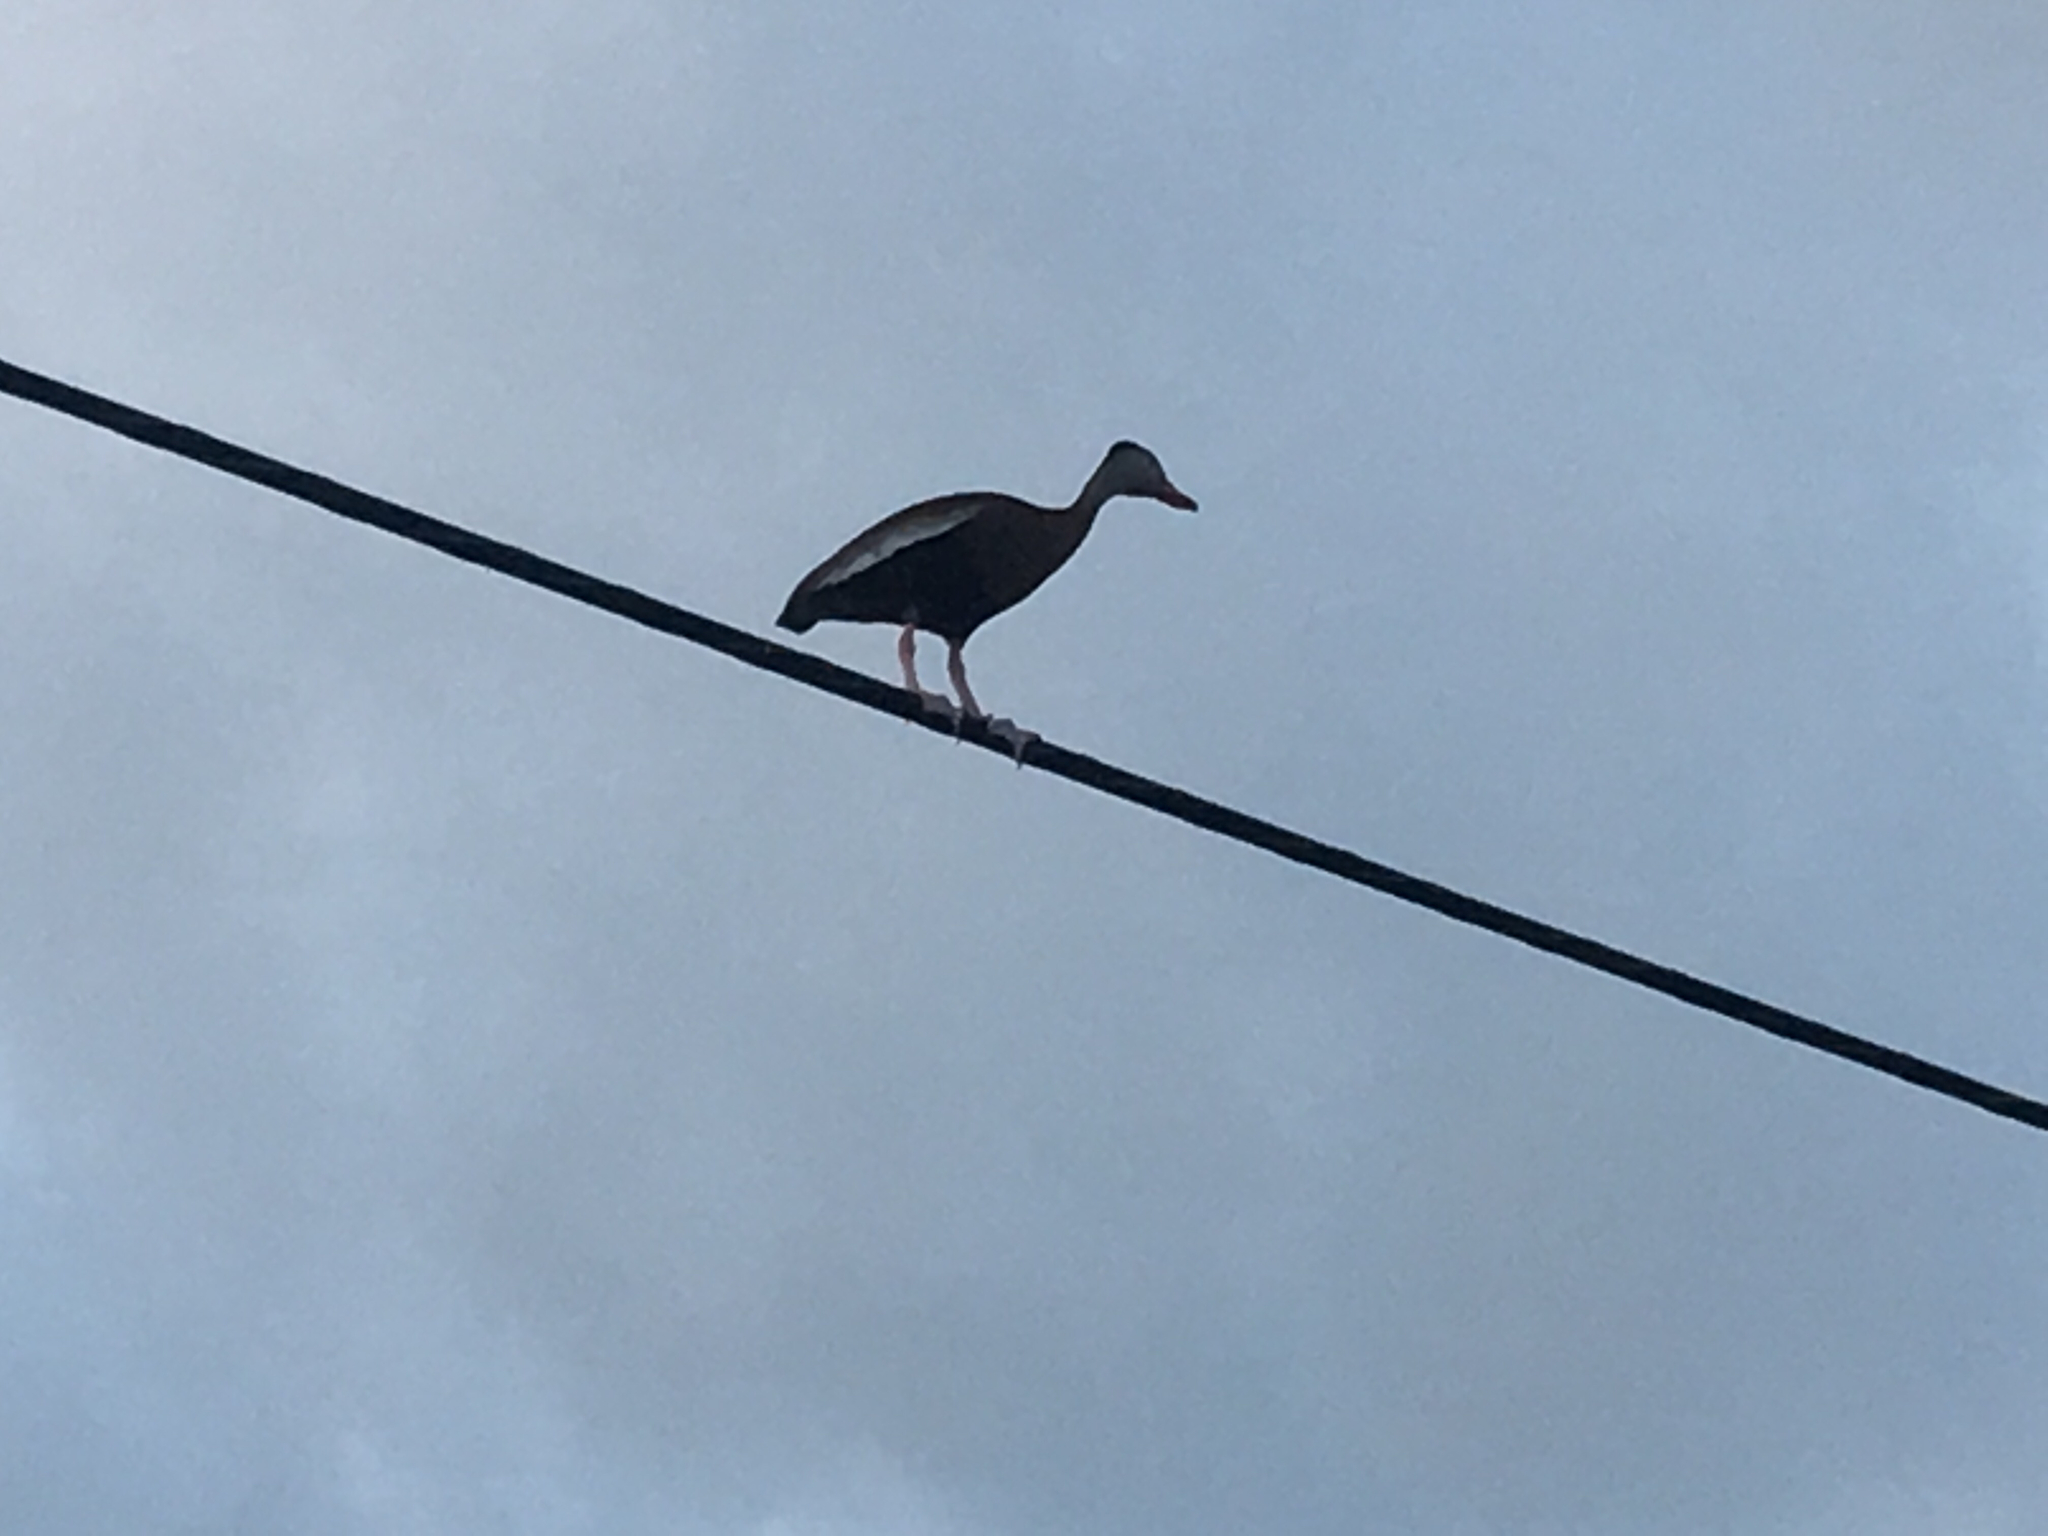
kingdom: Animalia
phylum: Chordata
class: Aves
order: Anseriformes
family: Anatidae
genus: Dendrocygna
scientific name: Dendrocygna autumnalis
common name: Black-bellied whistling duck
